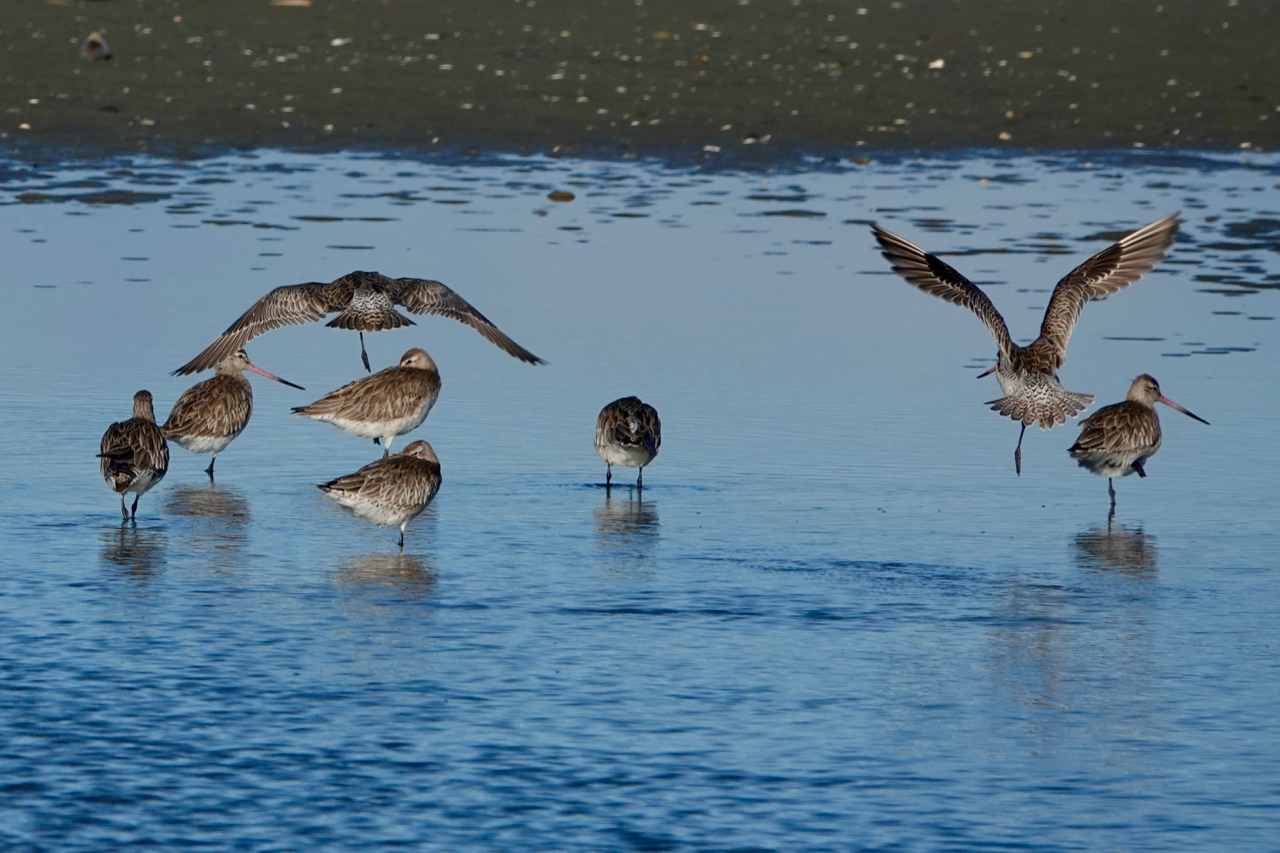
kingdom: Animalia
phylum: Chordata
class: Aves
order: Charadriiformes
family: Scolopacidae
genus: Limosa
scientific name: Limosa lapponica
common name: Bar-tailed godwit
